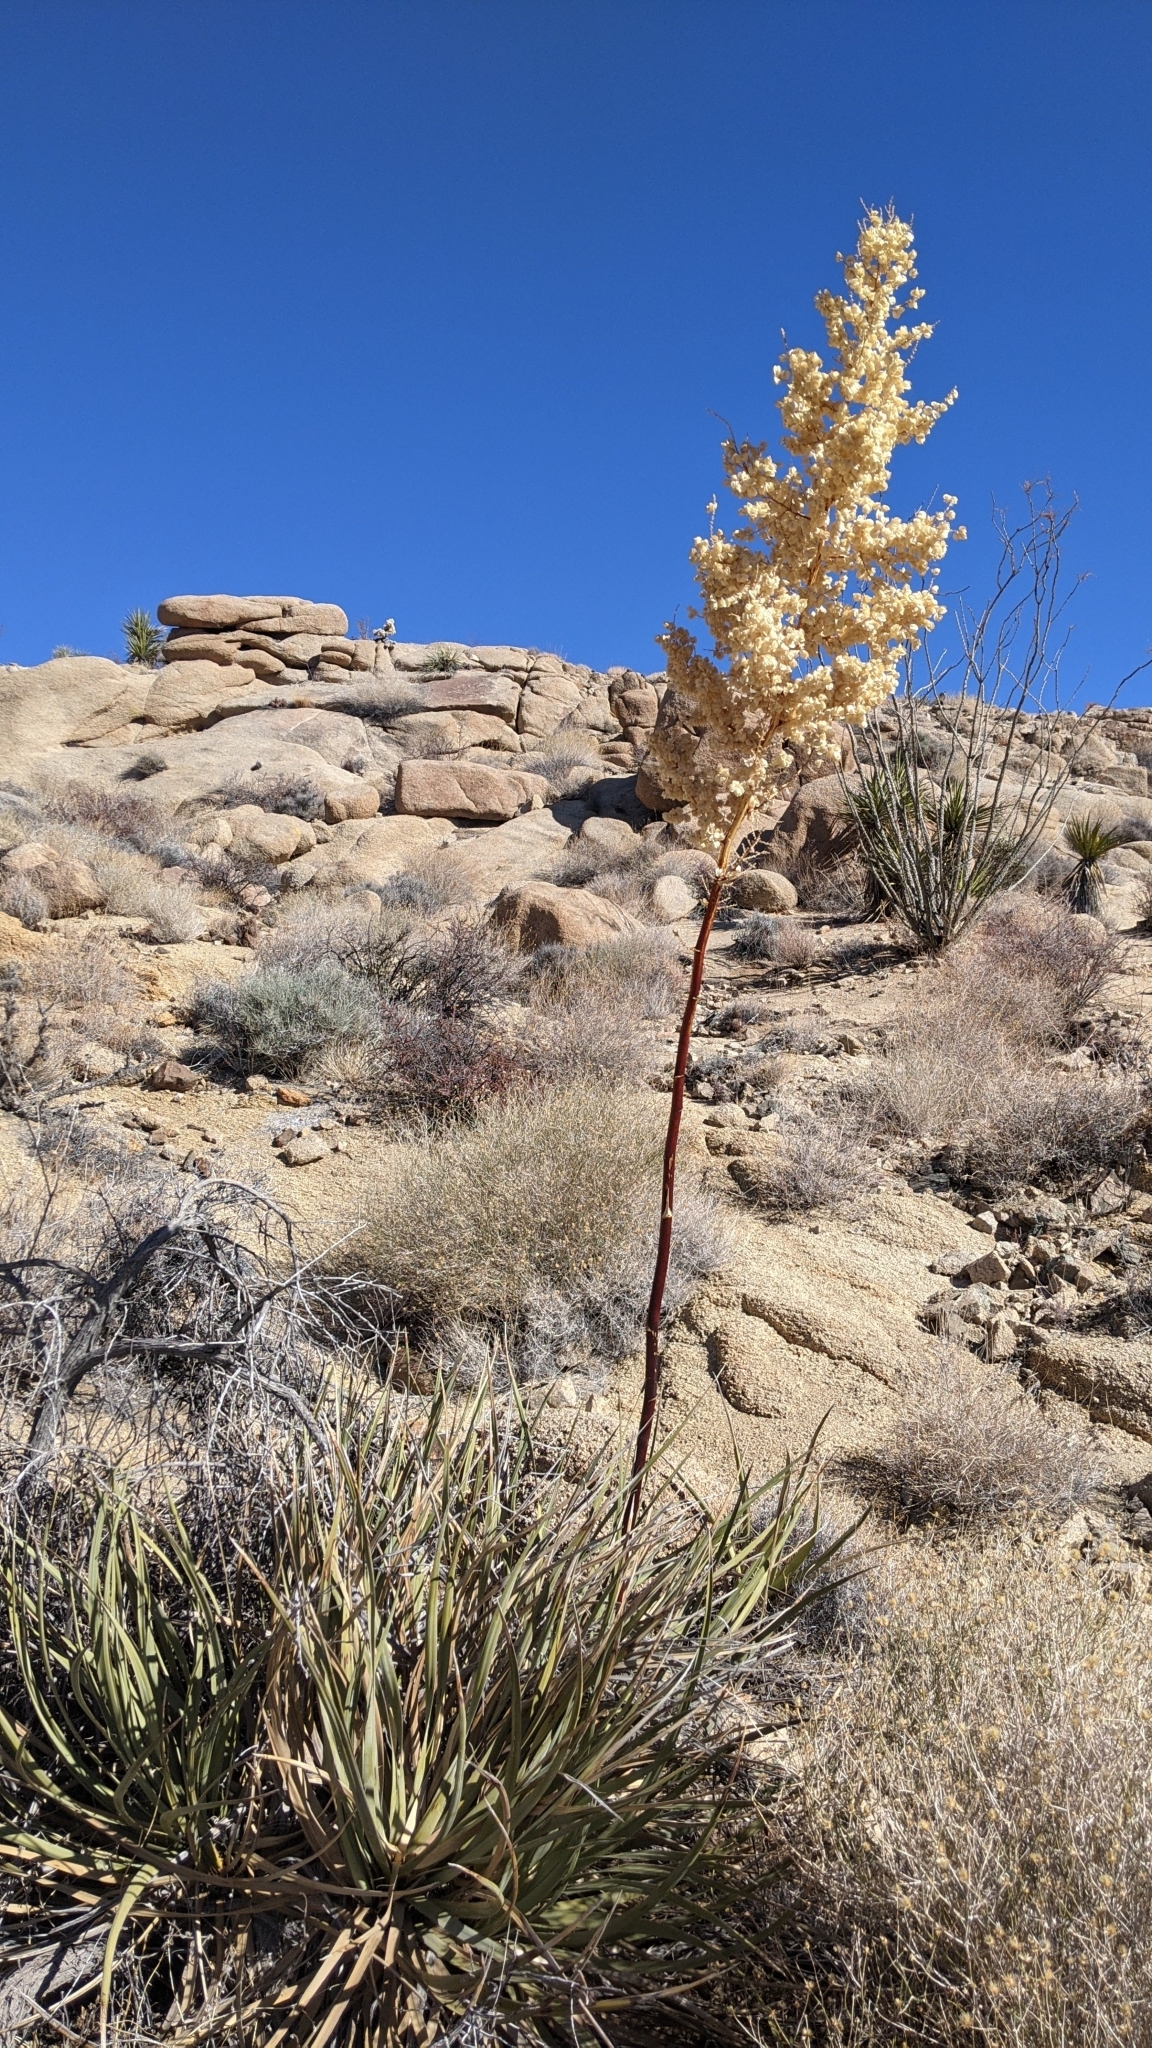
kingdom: Plantae
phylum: Tracheophyta
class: Liliopsida
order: Asparagales
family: Asparagaceae
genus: Nolina
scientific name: Nolina bigelovii
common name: Bigelow bear-grass
